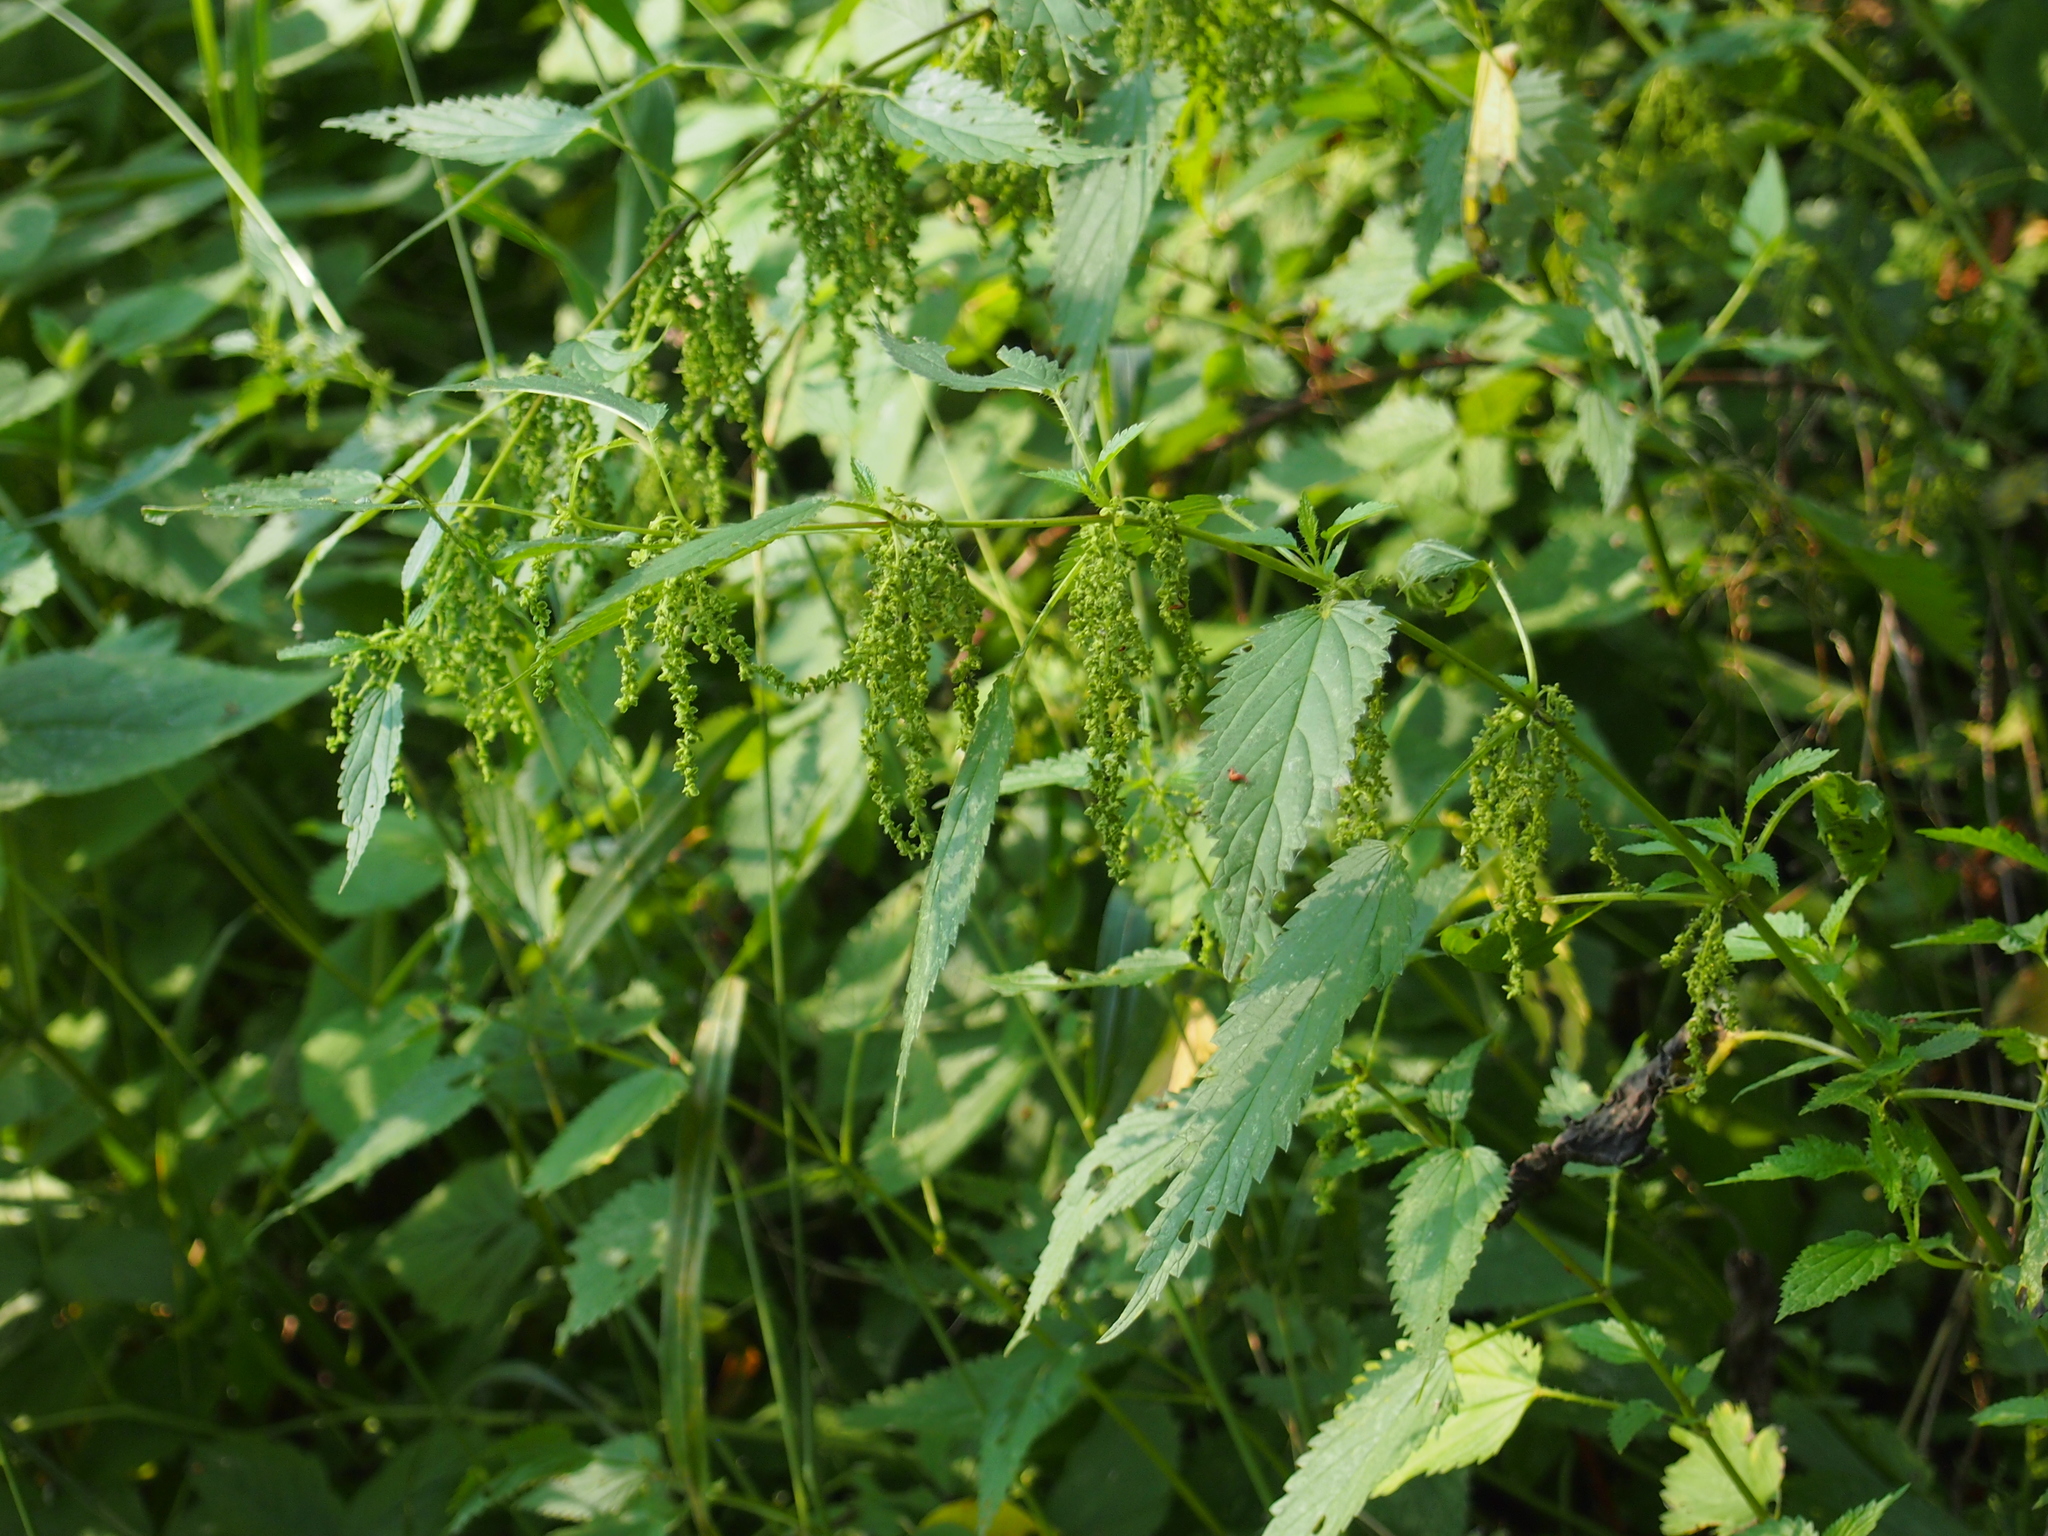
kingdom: Plantae
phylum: Tracheophyta
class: Magnoliopsida
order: Rosales
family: Urticaceae
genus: Urtica
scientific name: Urtica dioica
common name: Common nettle
